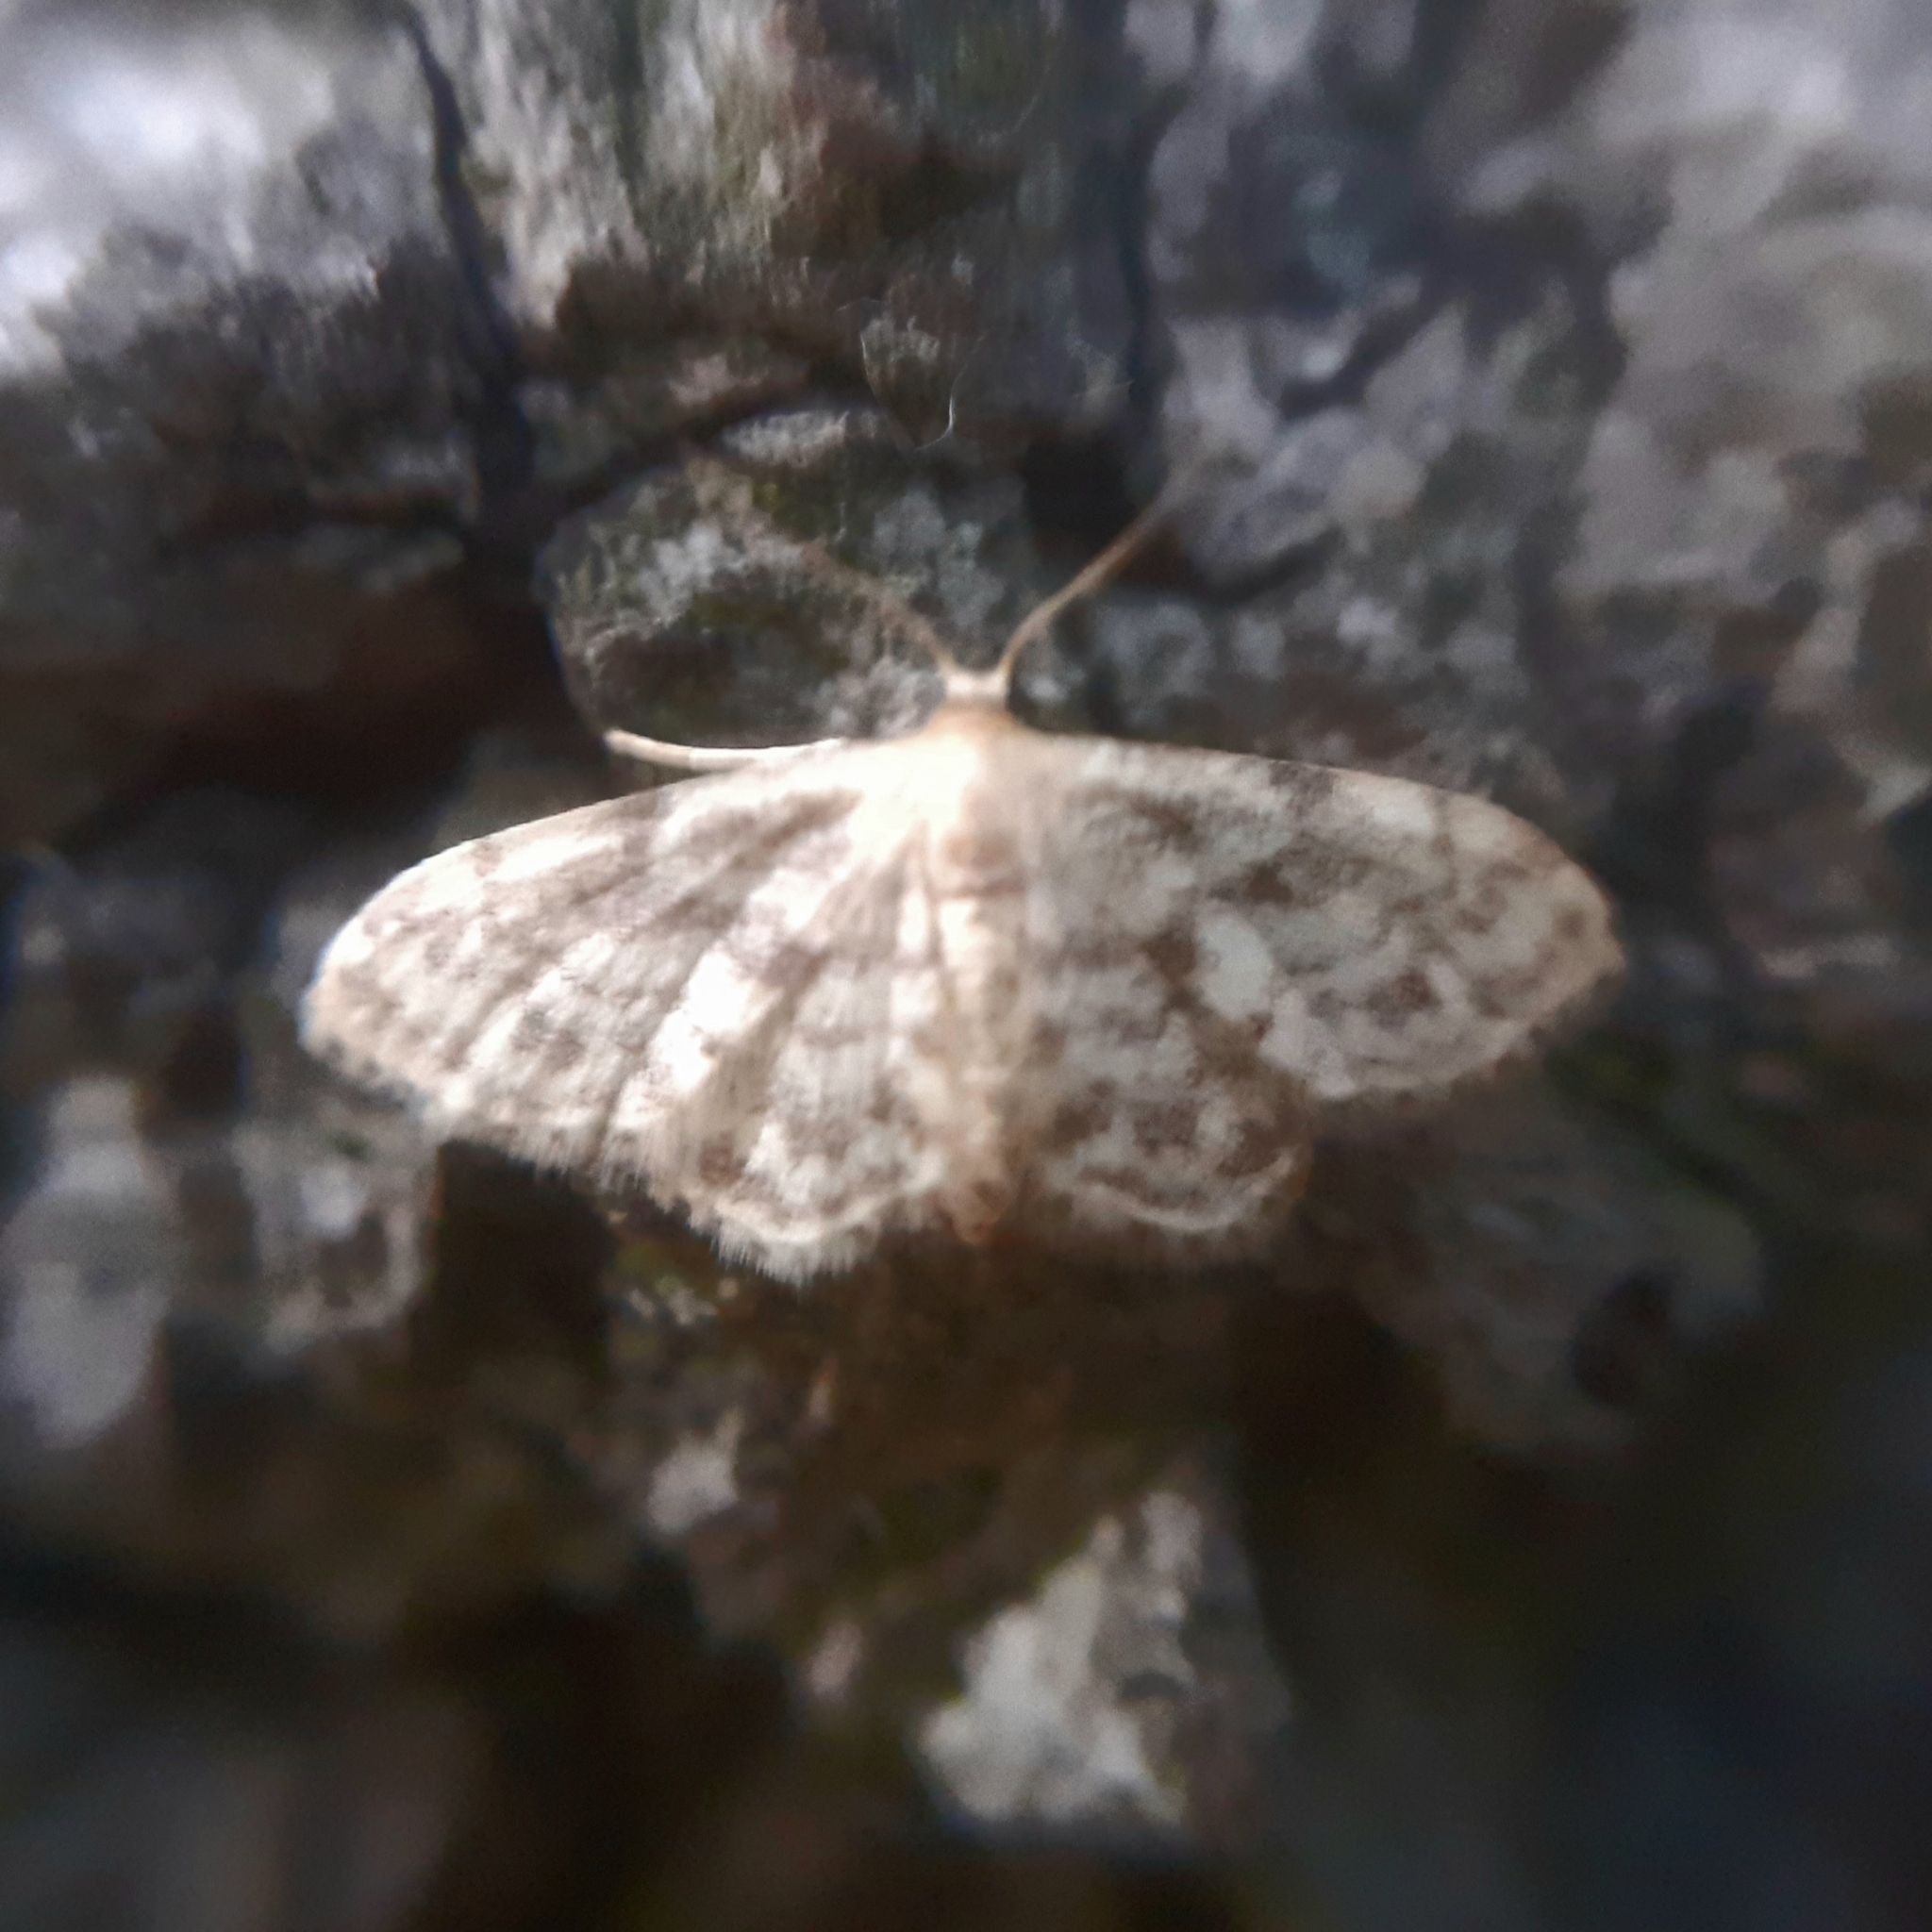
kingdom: Animalia
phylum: Arthropoda
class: Insecta
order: Lepidoptera
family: Geometridae
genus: Idaea
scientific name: Idaea inquinata
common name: Rusty wave
